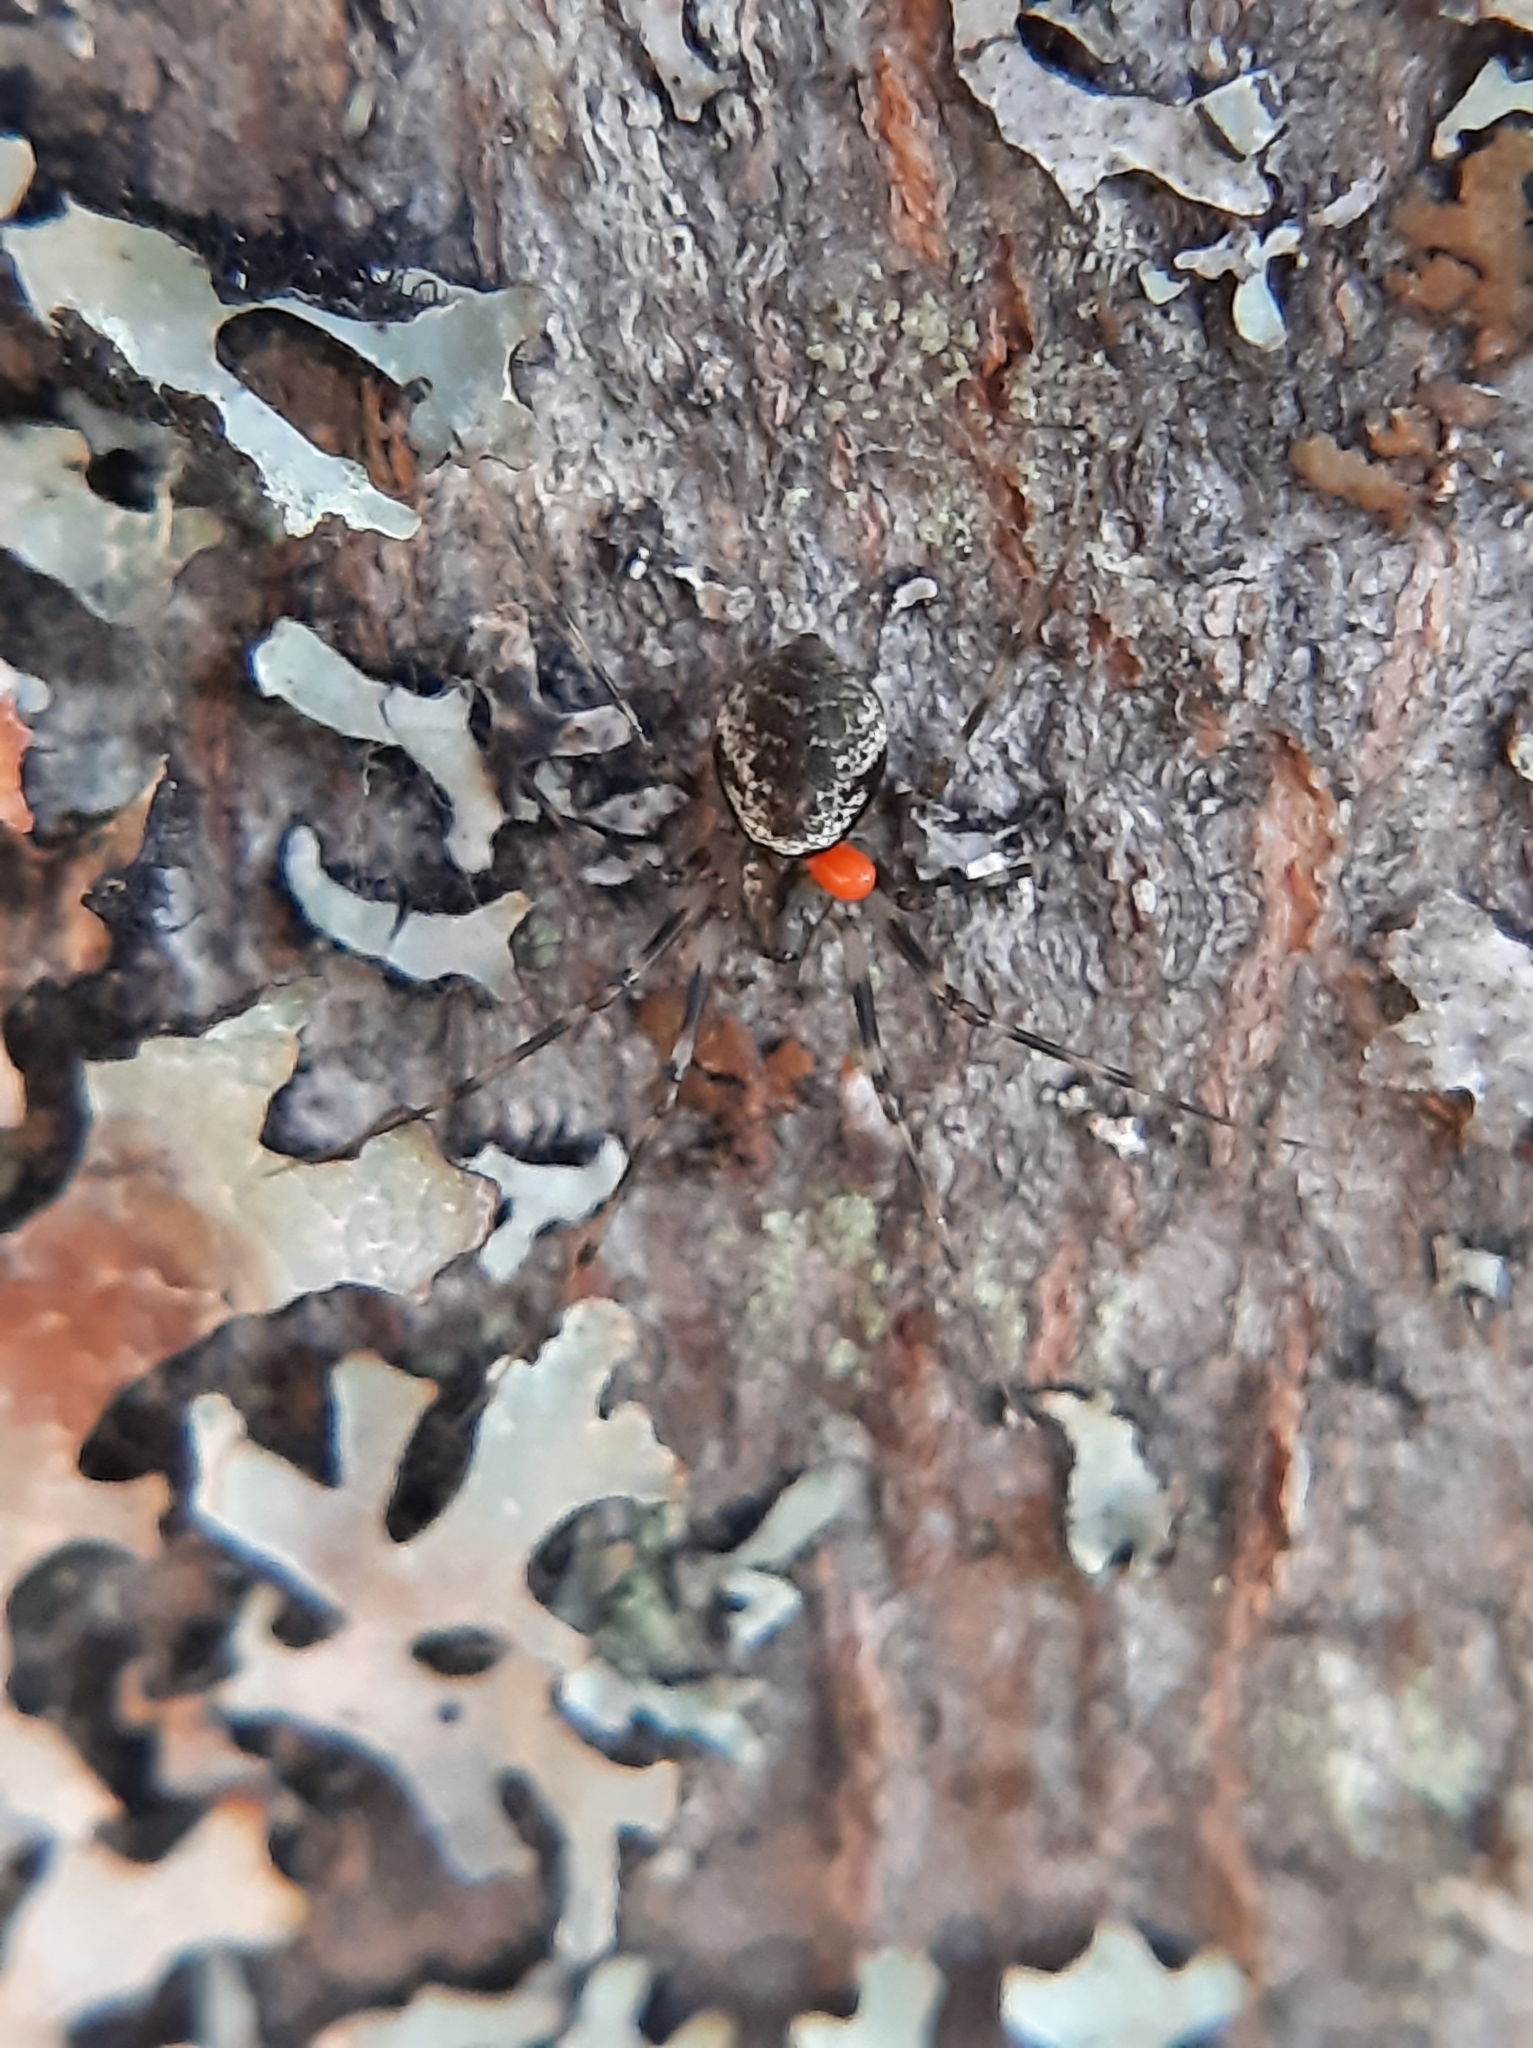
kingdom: Animalia
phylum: Arthropoda
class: Arachnida
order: Araneae
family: Linyphiidae
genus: Drapetisca
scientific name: Drapetisca alteranda
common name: Northern long-toothed sheetweaver
